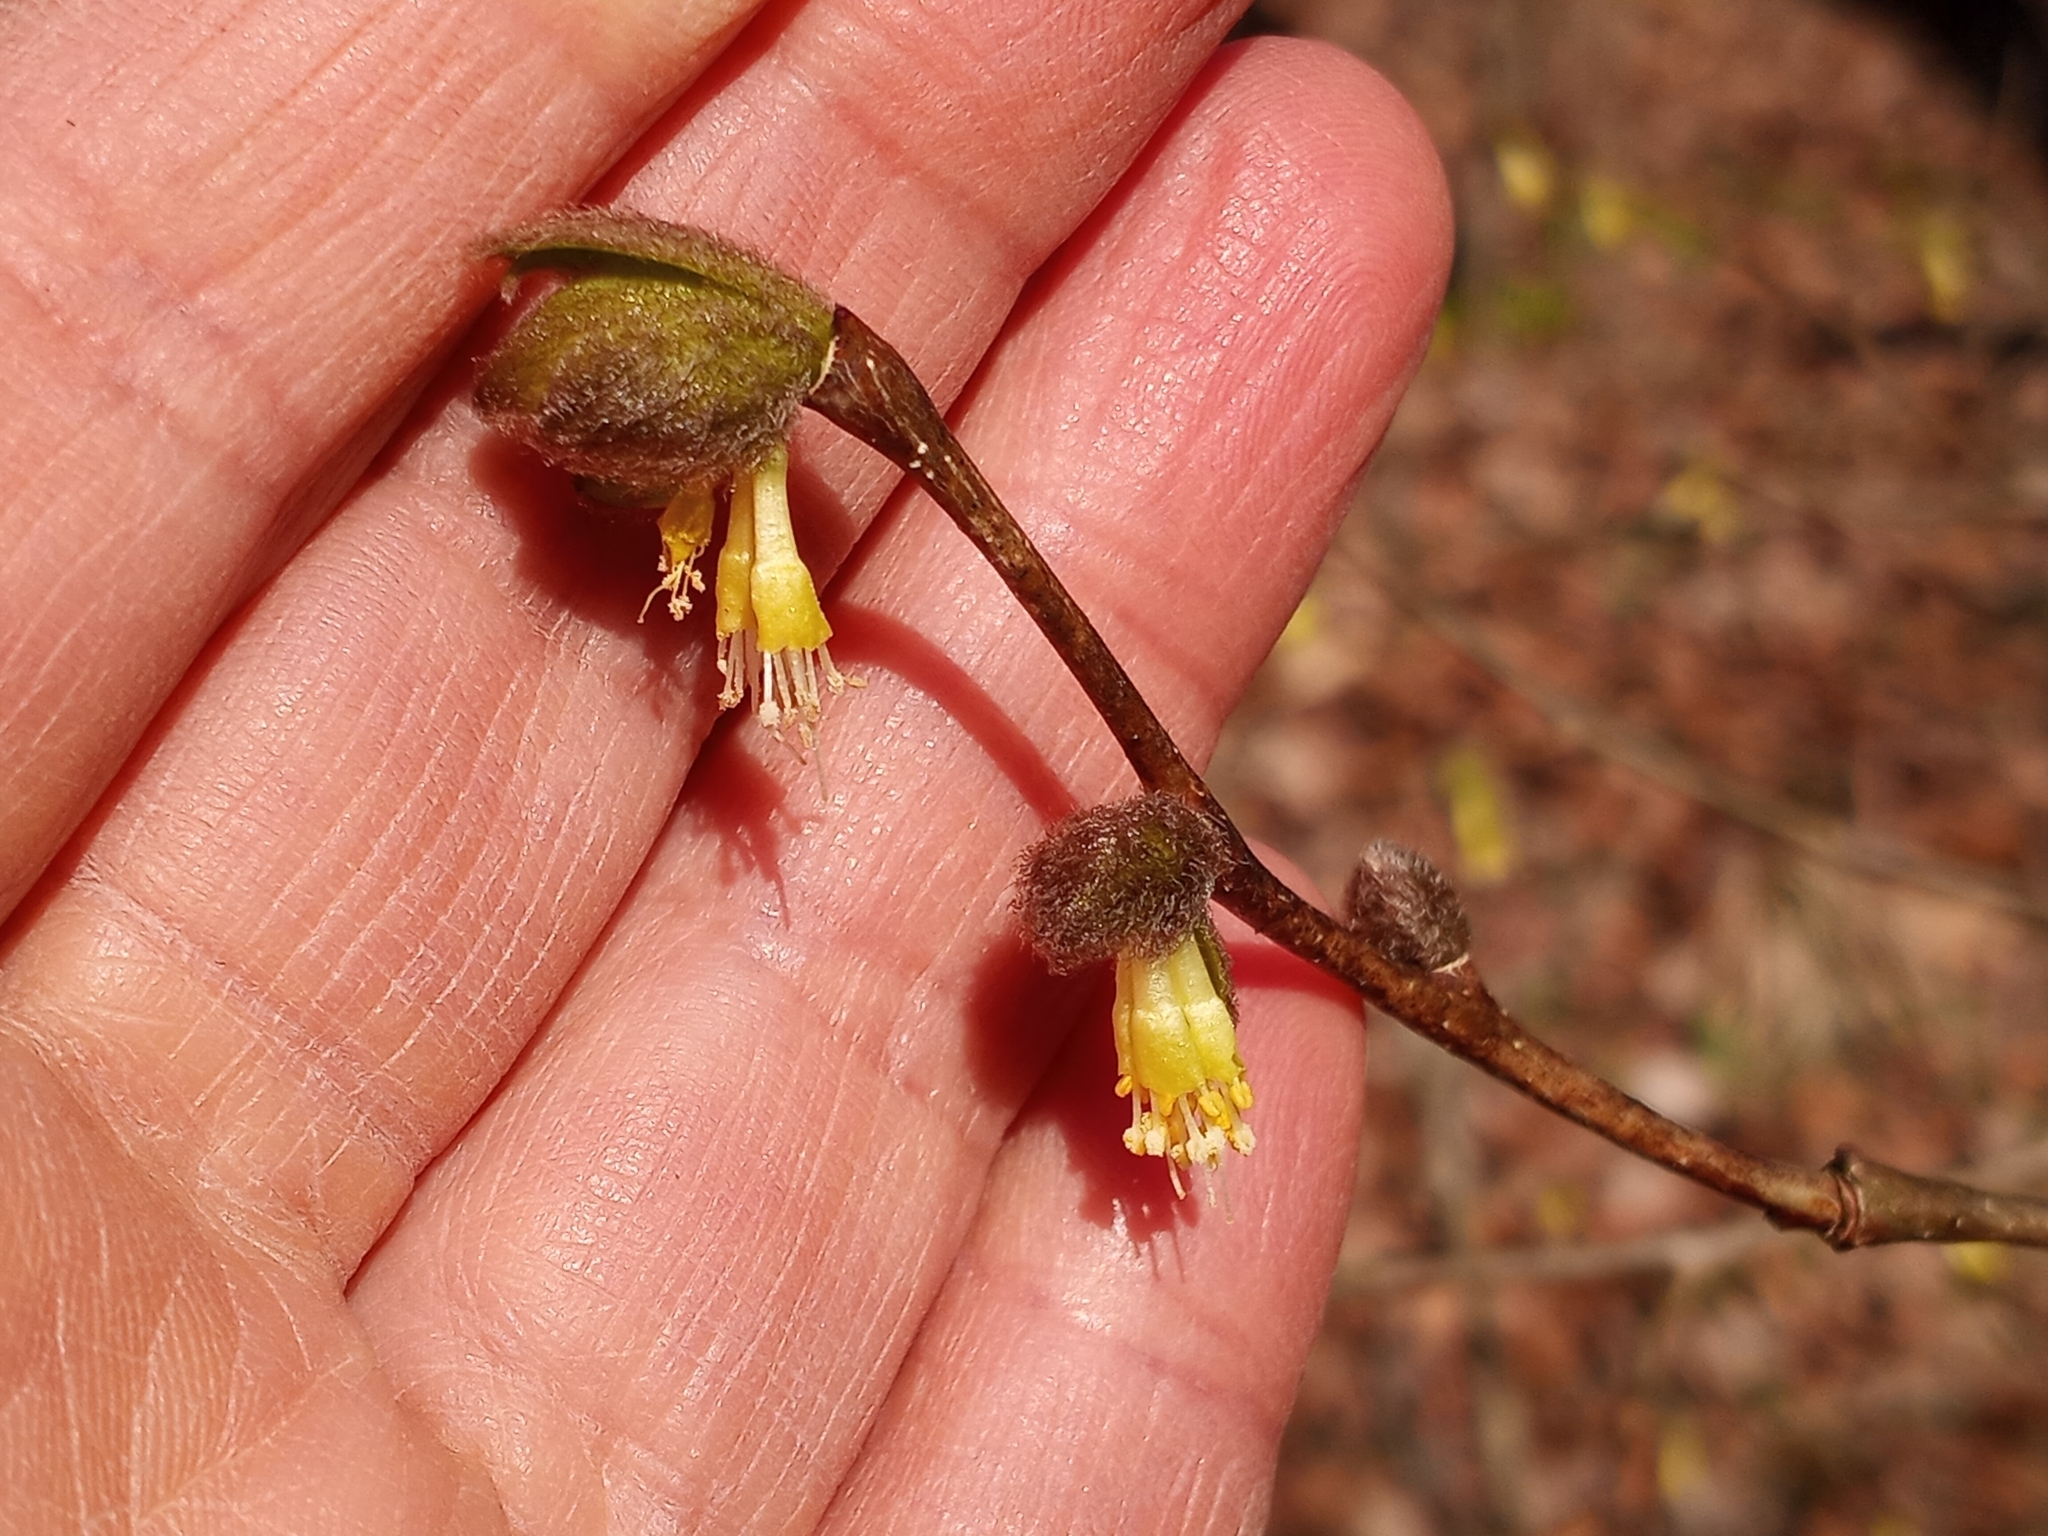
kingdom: Plantae
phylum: Tracheophyta
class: Magnoliopsida
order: Malvales
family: Thymelaeaceae
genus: Dirca
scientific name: Dirca palustris
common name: Leatherwood
